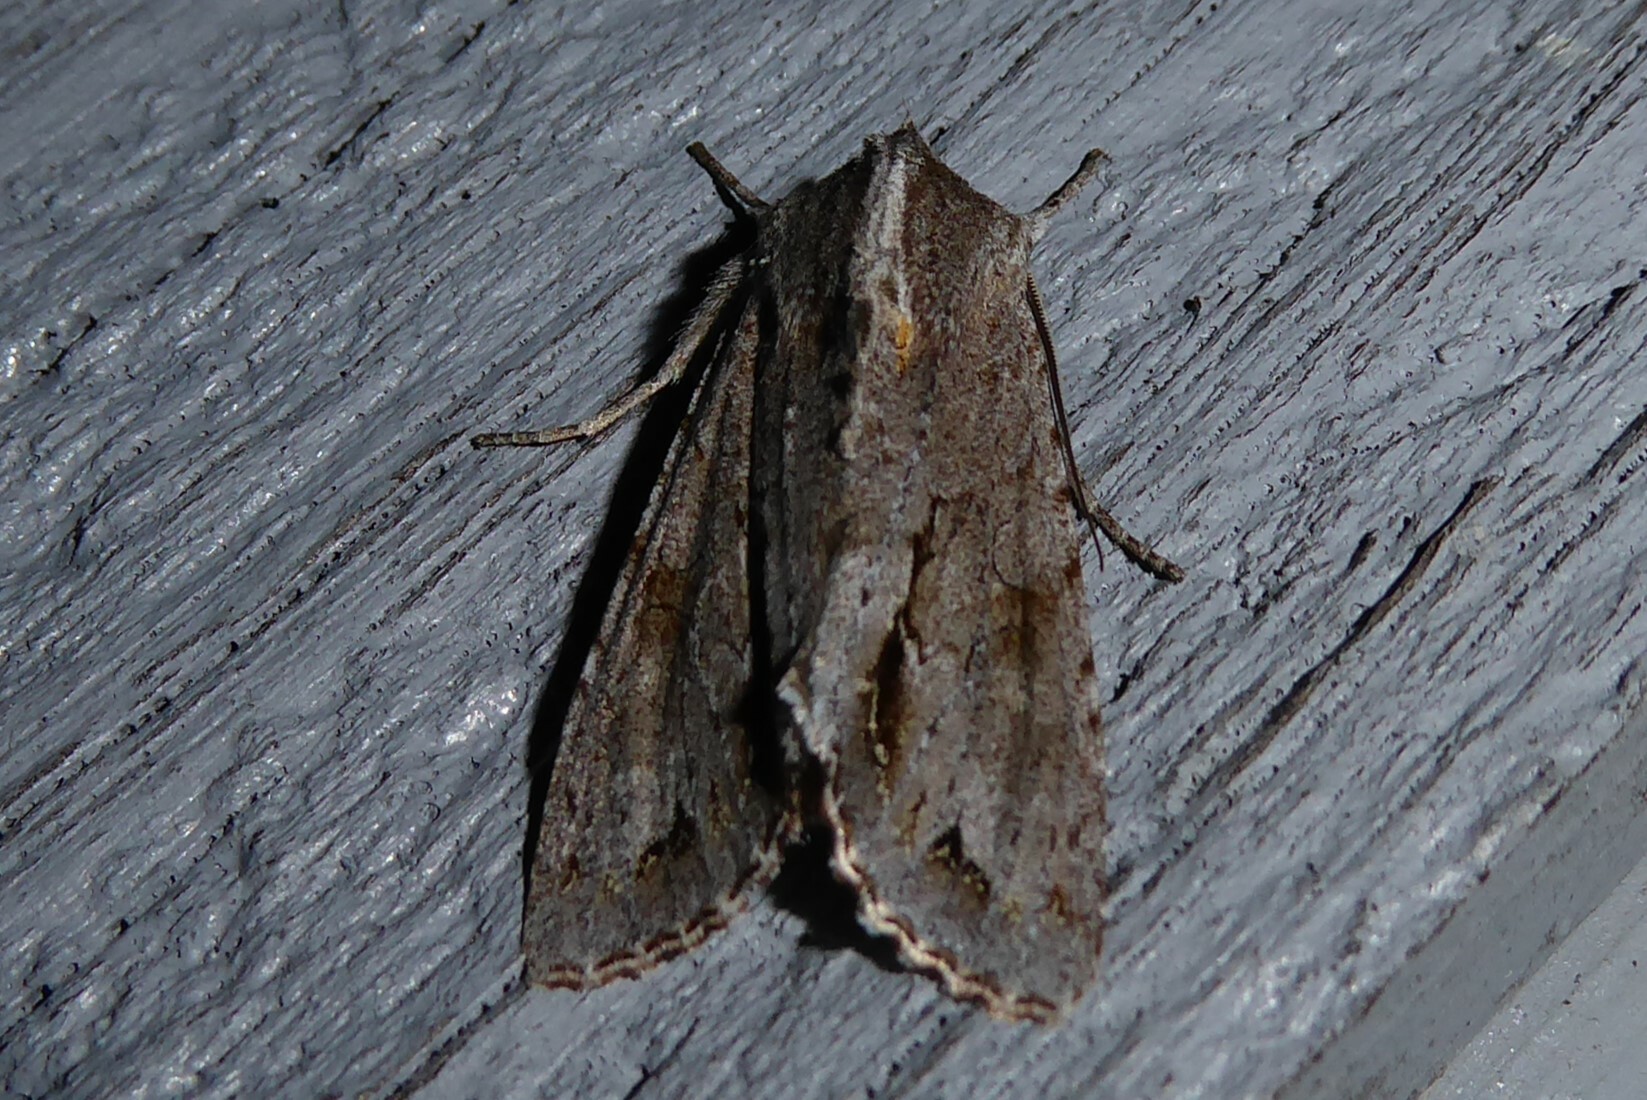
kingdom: Animalia
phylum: Arthropoda
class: Insecta
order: Lepidoptera
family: Noctuidae
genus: Ichneutica
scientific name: Ichneutica
